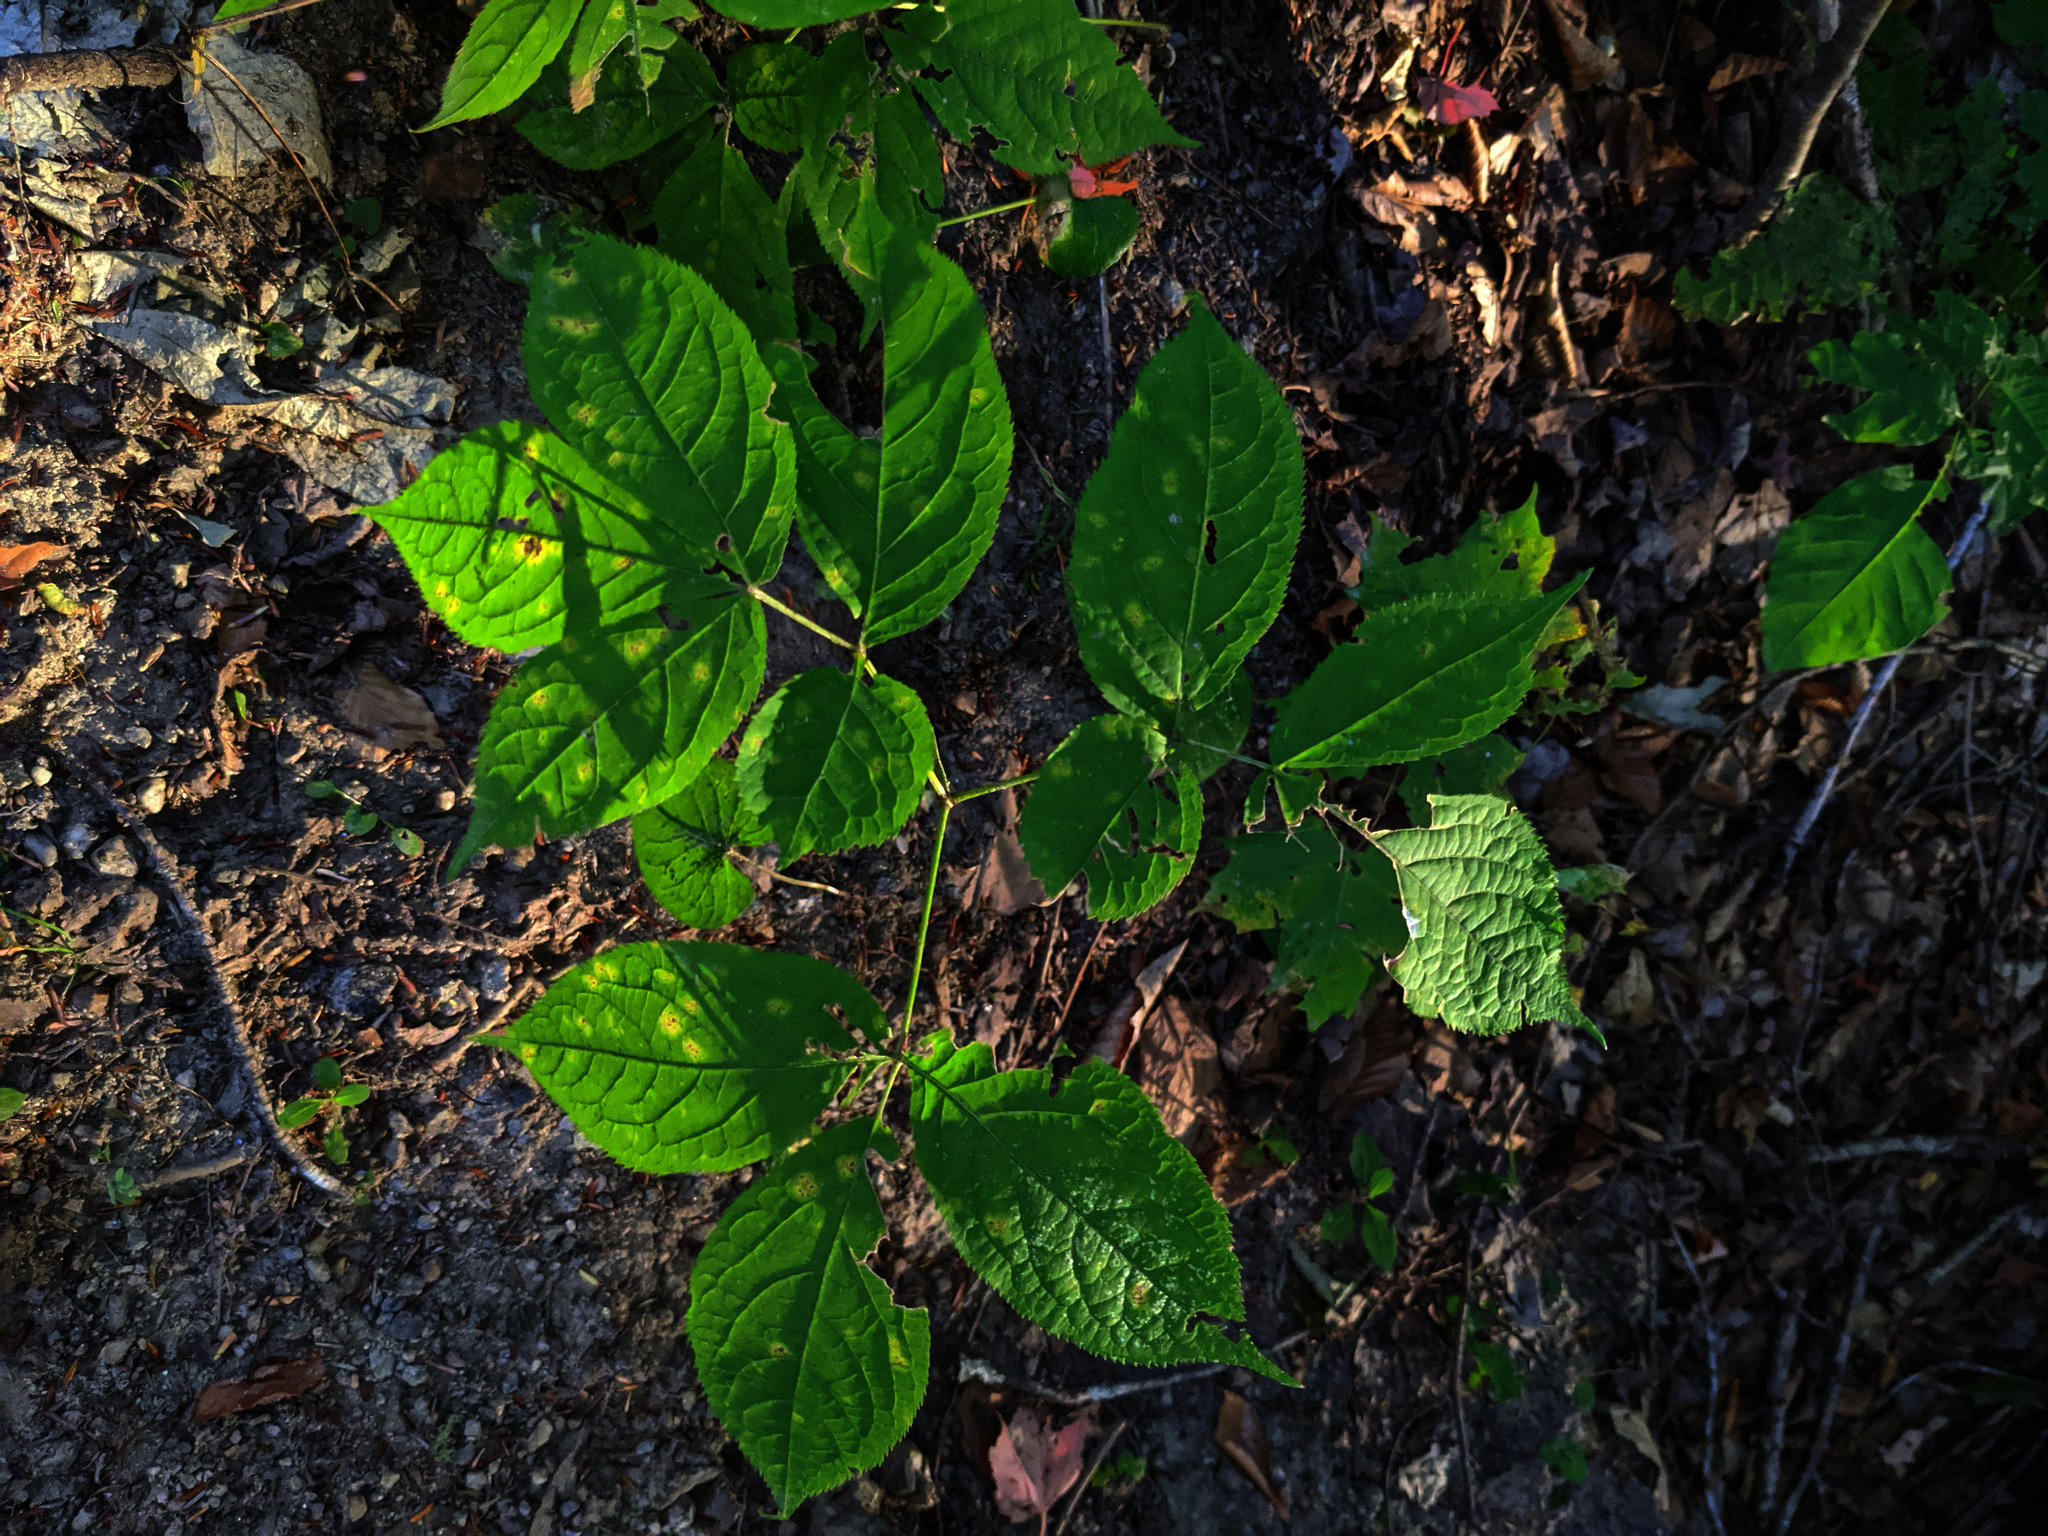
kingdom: Plantae
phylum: Tracheophyta
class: Magnoliopsida
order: Apiales
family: Araliaceae
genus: Aralia
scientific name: Aralia nudicaulis
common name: Wild sarsaparilla
